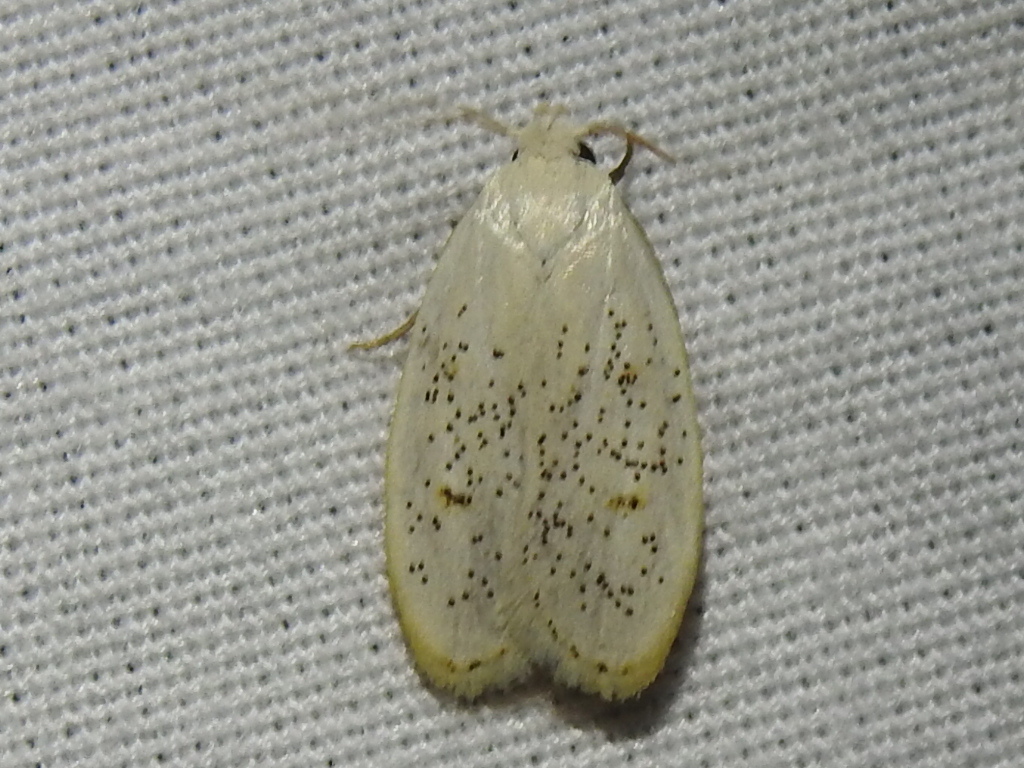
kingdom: Animalia
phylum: Arthropoda
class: Insecta
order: Lepidoptera
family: Peleopodidae
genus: Durrantia
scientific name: Durrantia piperatella
